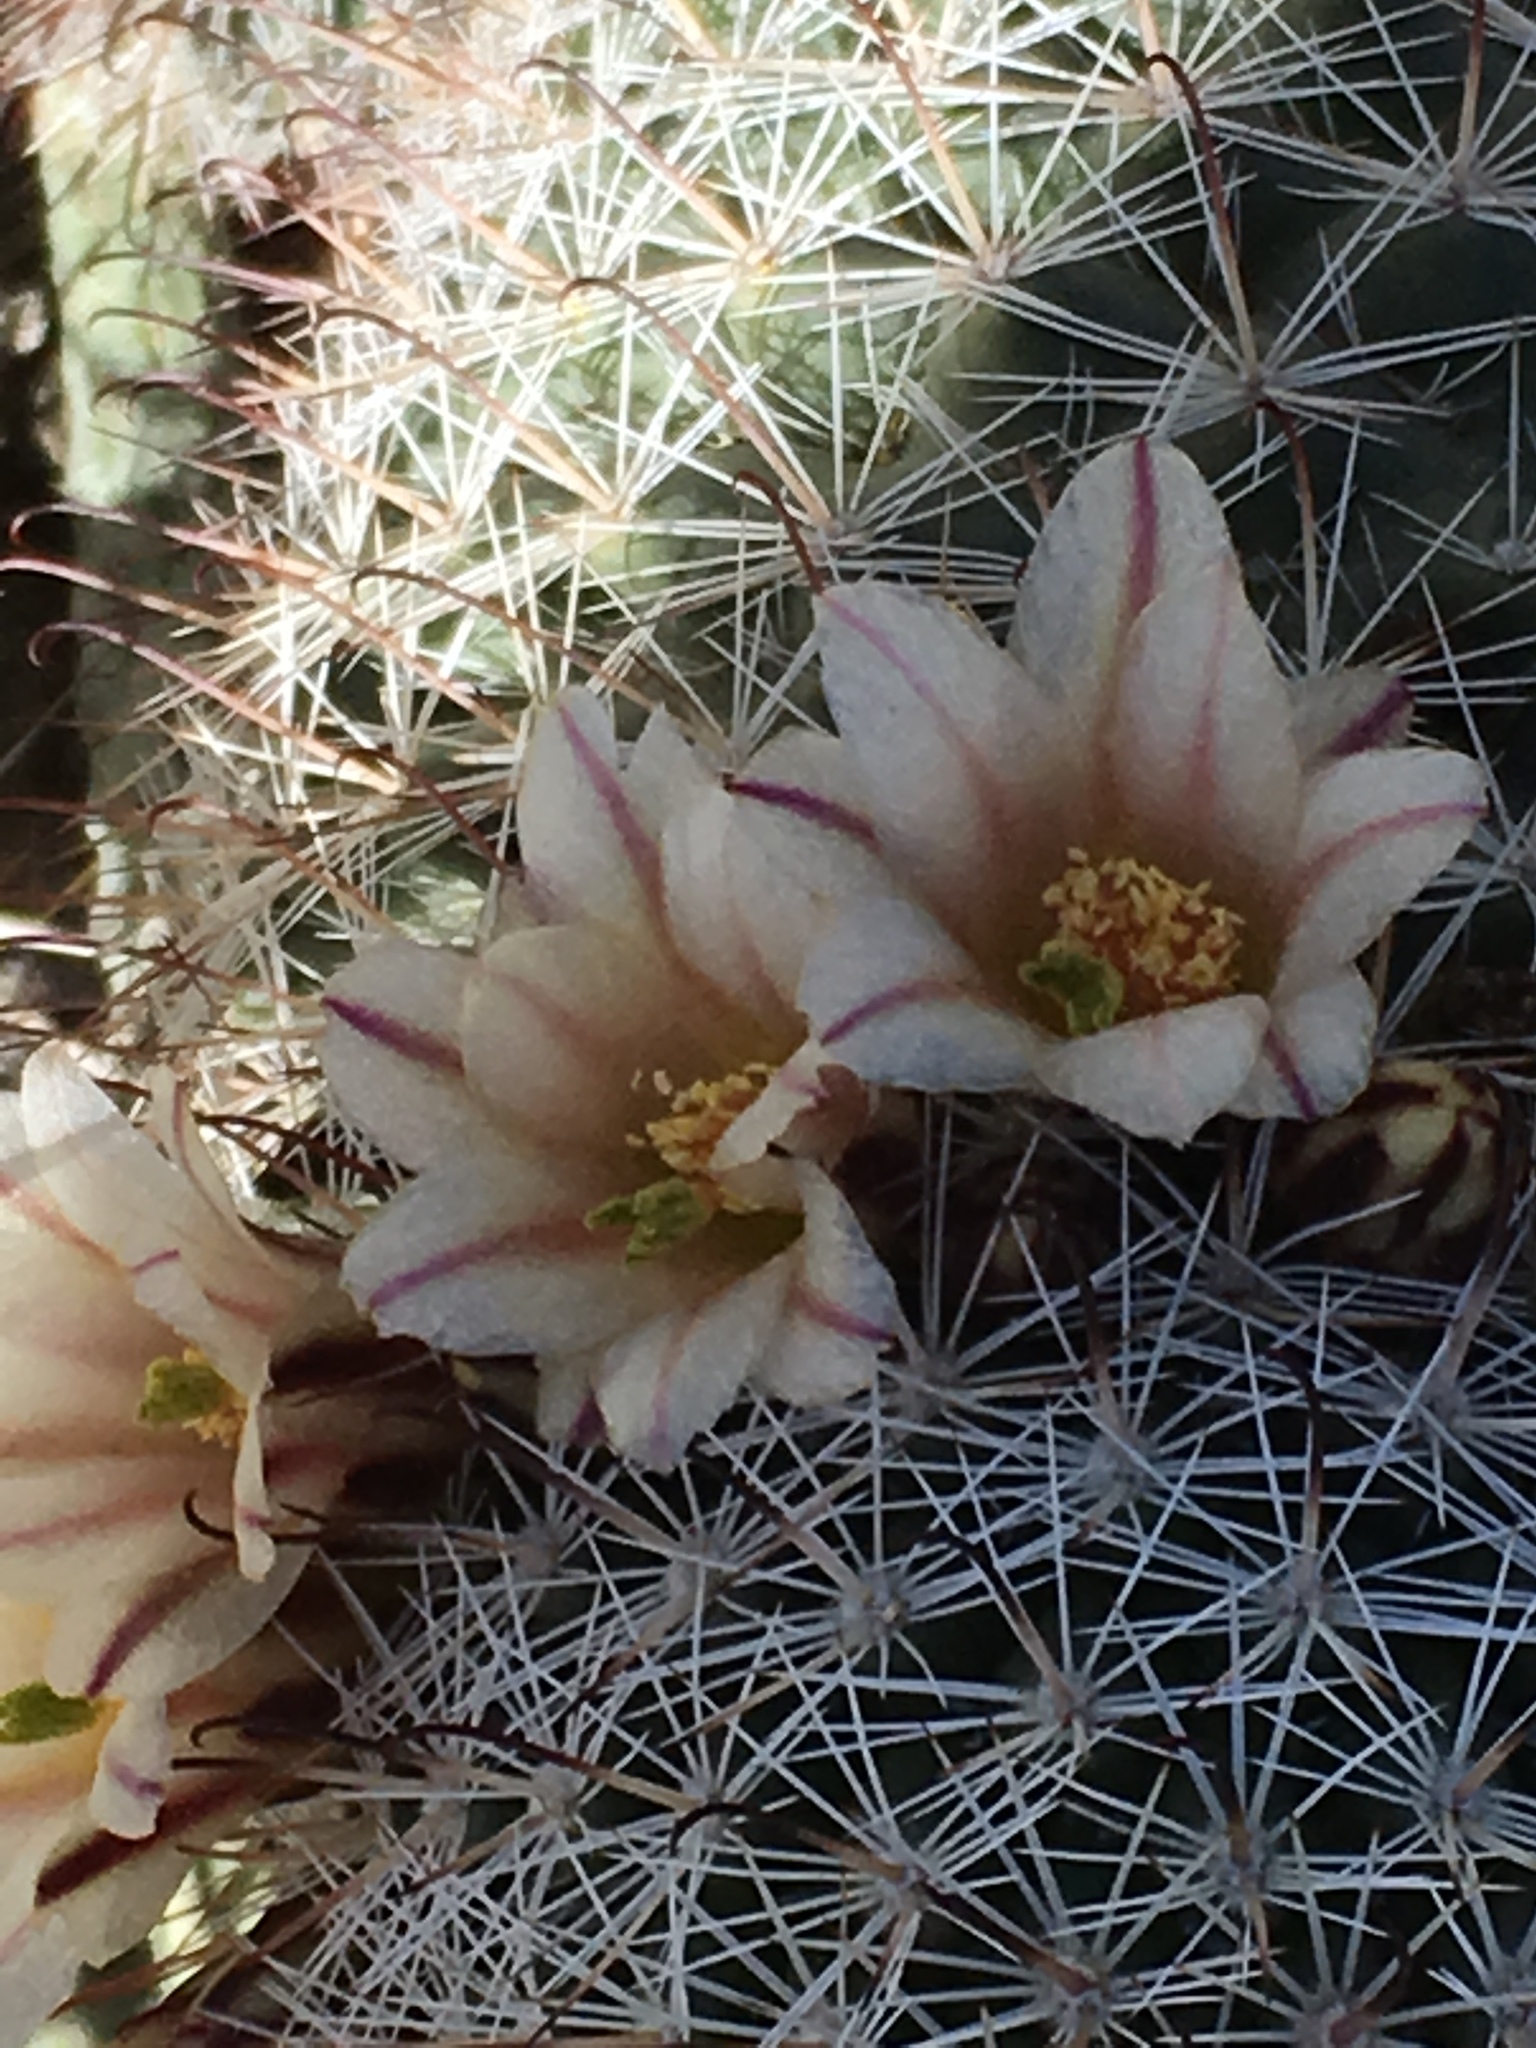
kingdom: Plantae
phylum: Tracheophyta
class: Magnoliopsida
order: Caryophyllales
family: Cactaceae
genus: Cochemiea
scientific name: Cochemiea dioica
